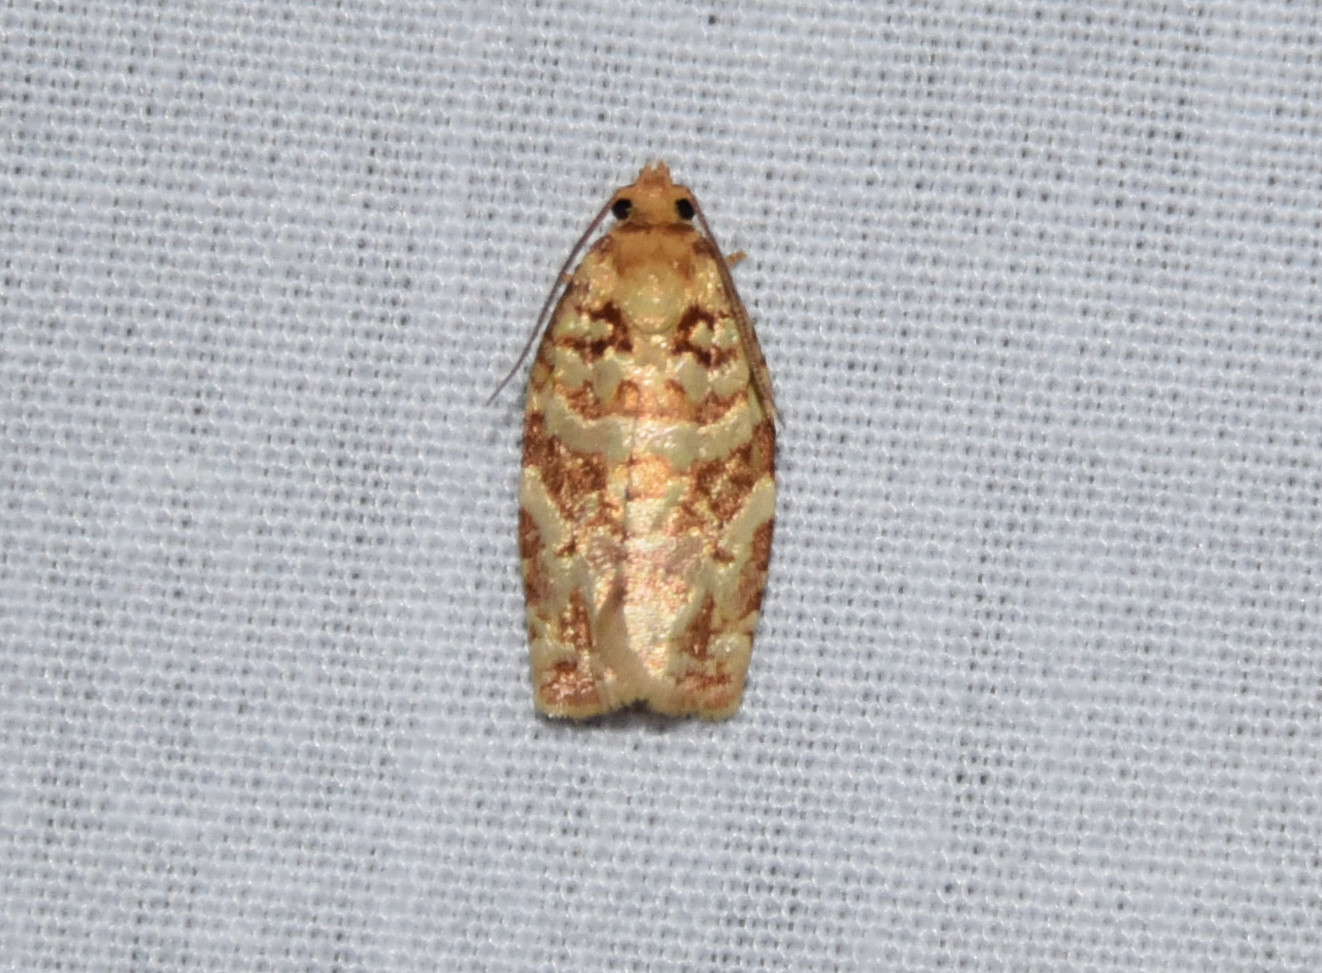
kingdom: Animalia
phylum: Arthropoda
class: Insecta
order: Lepidoptera
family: Tortricidae
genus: Archips
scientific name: Archips georgiana
